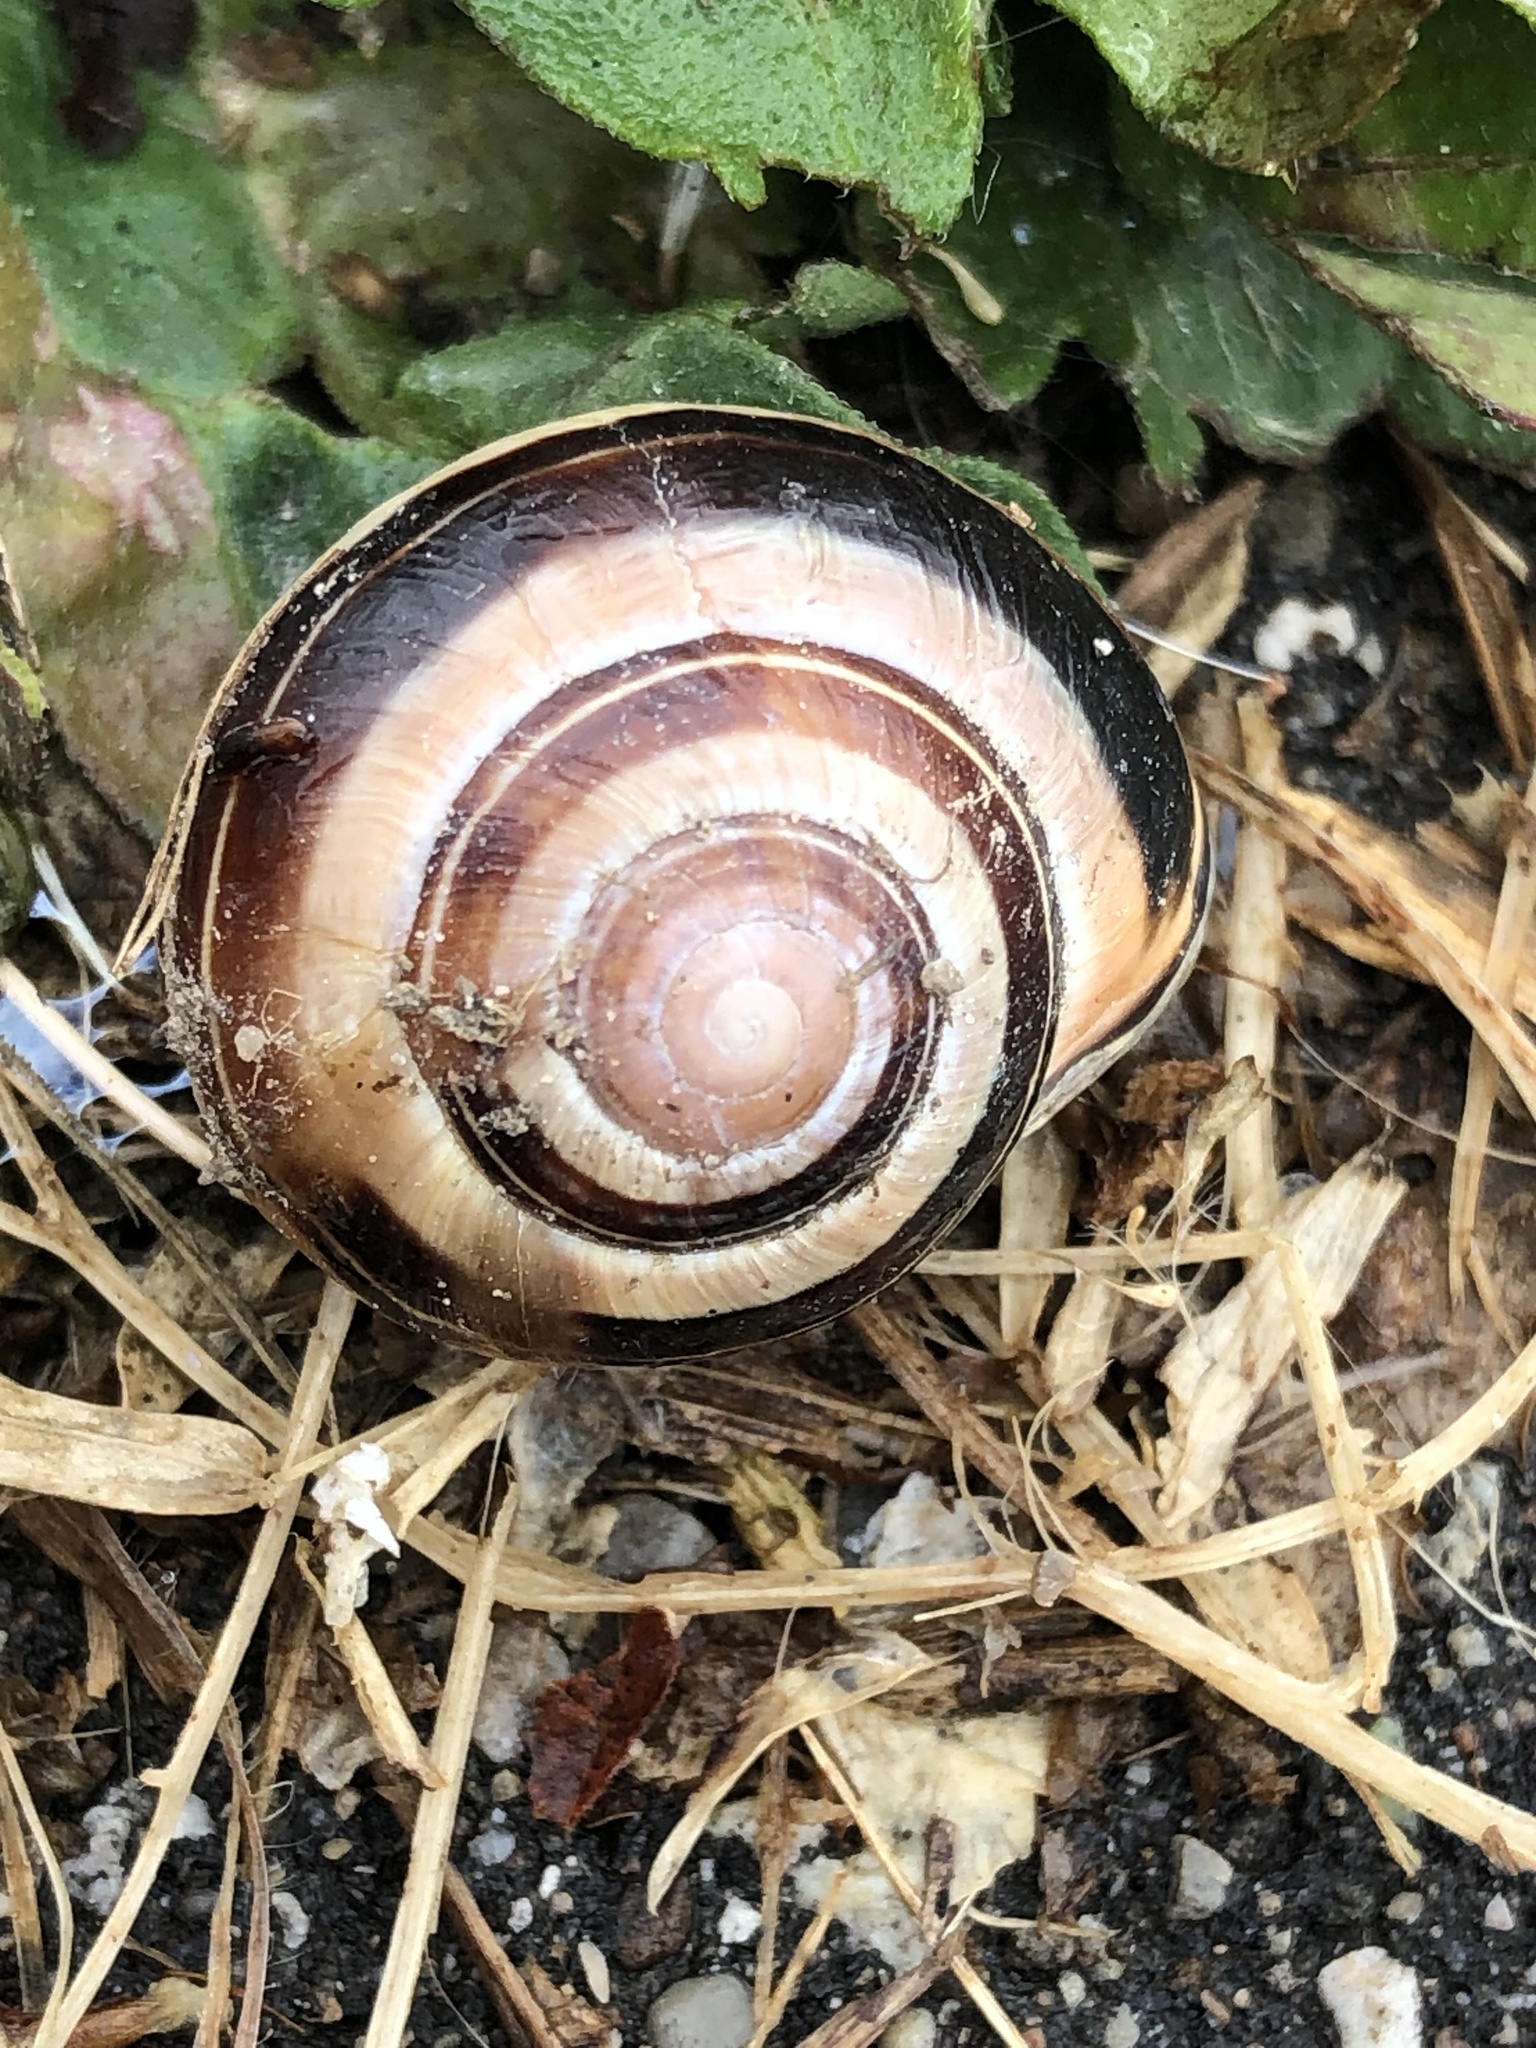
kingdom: Animalia
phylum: Mollusca
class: Gastropoda
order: Stylommatophora
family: Helicidae
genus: Cepaea
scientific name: Cepaea nemoralis
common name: Grovesnail
